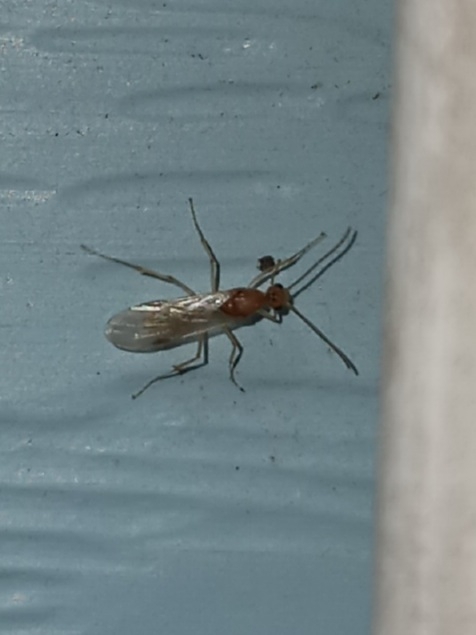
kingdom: Animalia
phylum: Arthropoda
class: Insecta
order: Hymenoptera
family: Formicidae
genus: Pachycondyla
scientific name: Pachycondyla chinensis
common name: Asian needle ant
